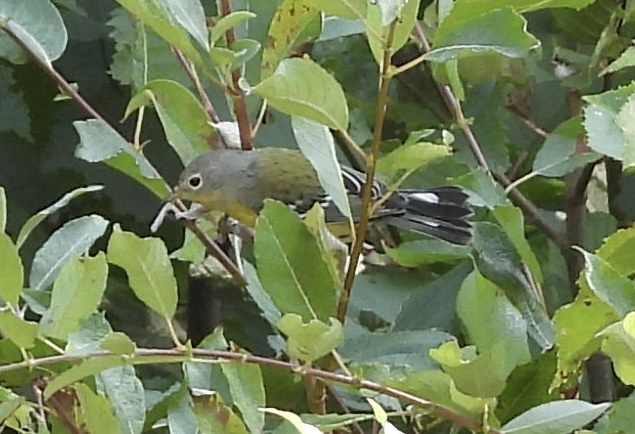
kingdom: Animalia
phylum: Chordata
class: Aves
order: Passeriformes
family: Parulidae
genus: Setophaga
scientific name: Setophaga magnolia
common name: Magnolia warbler
